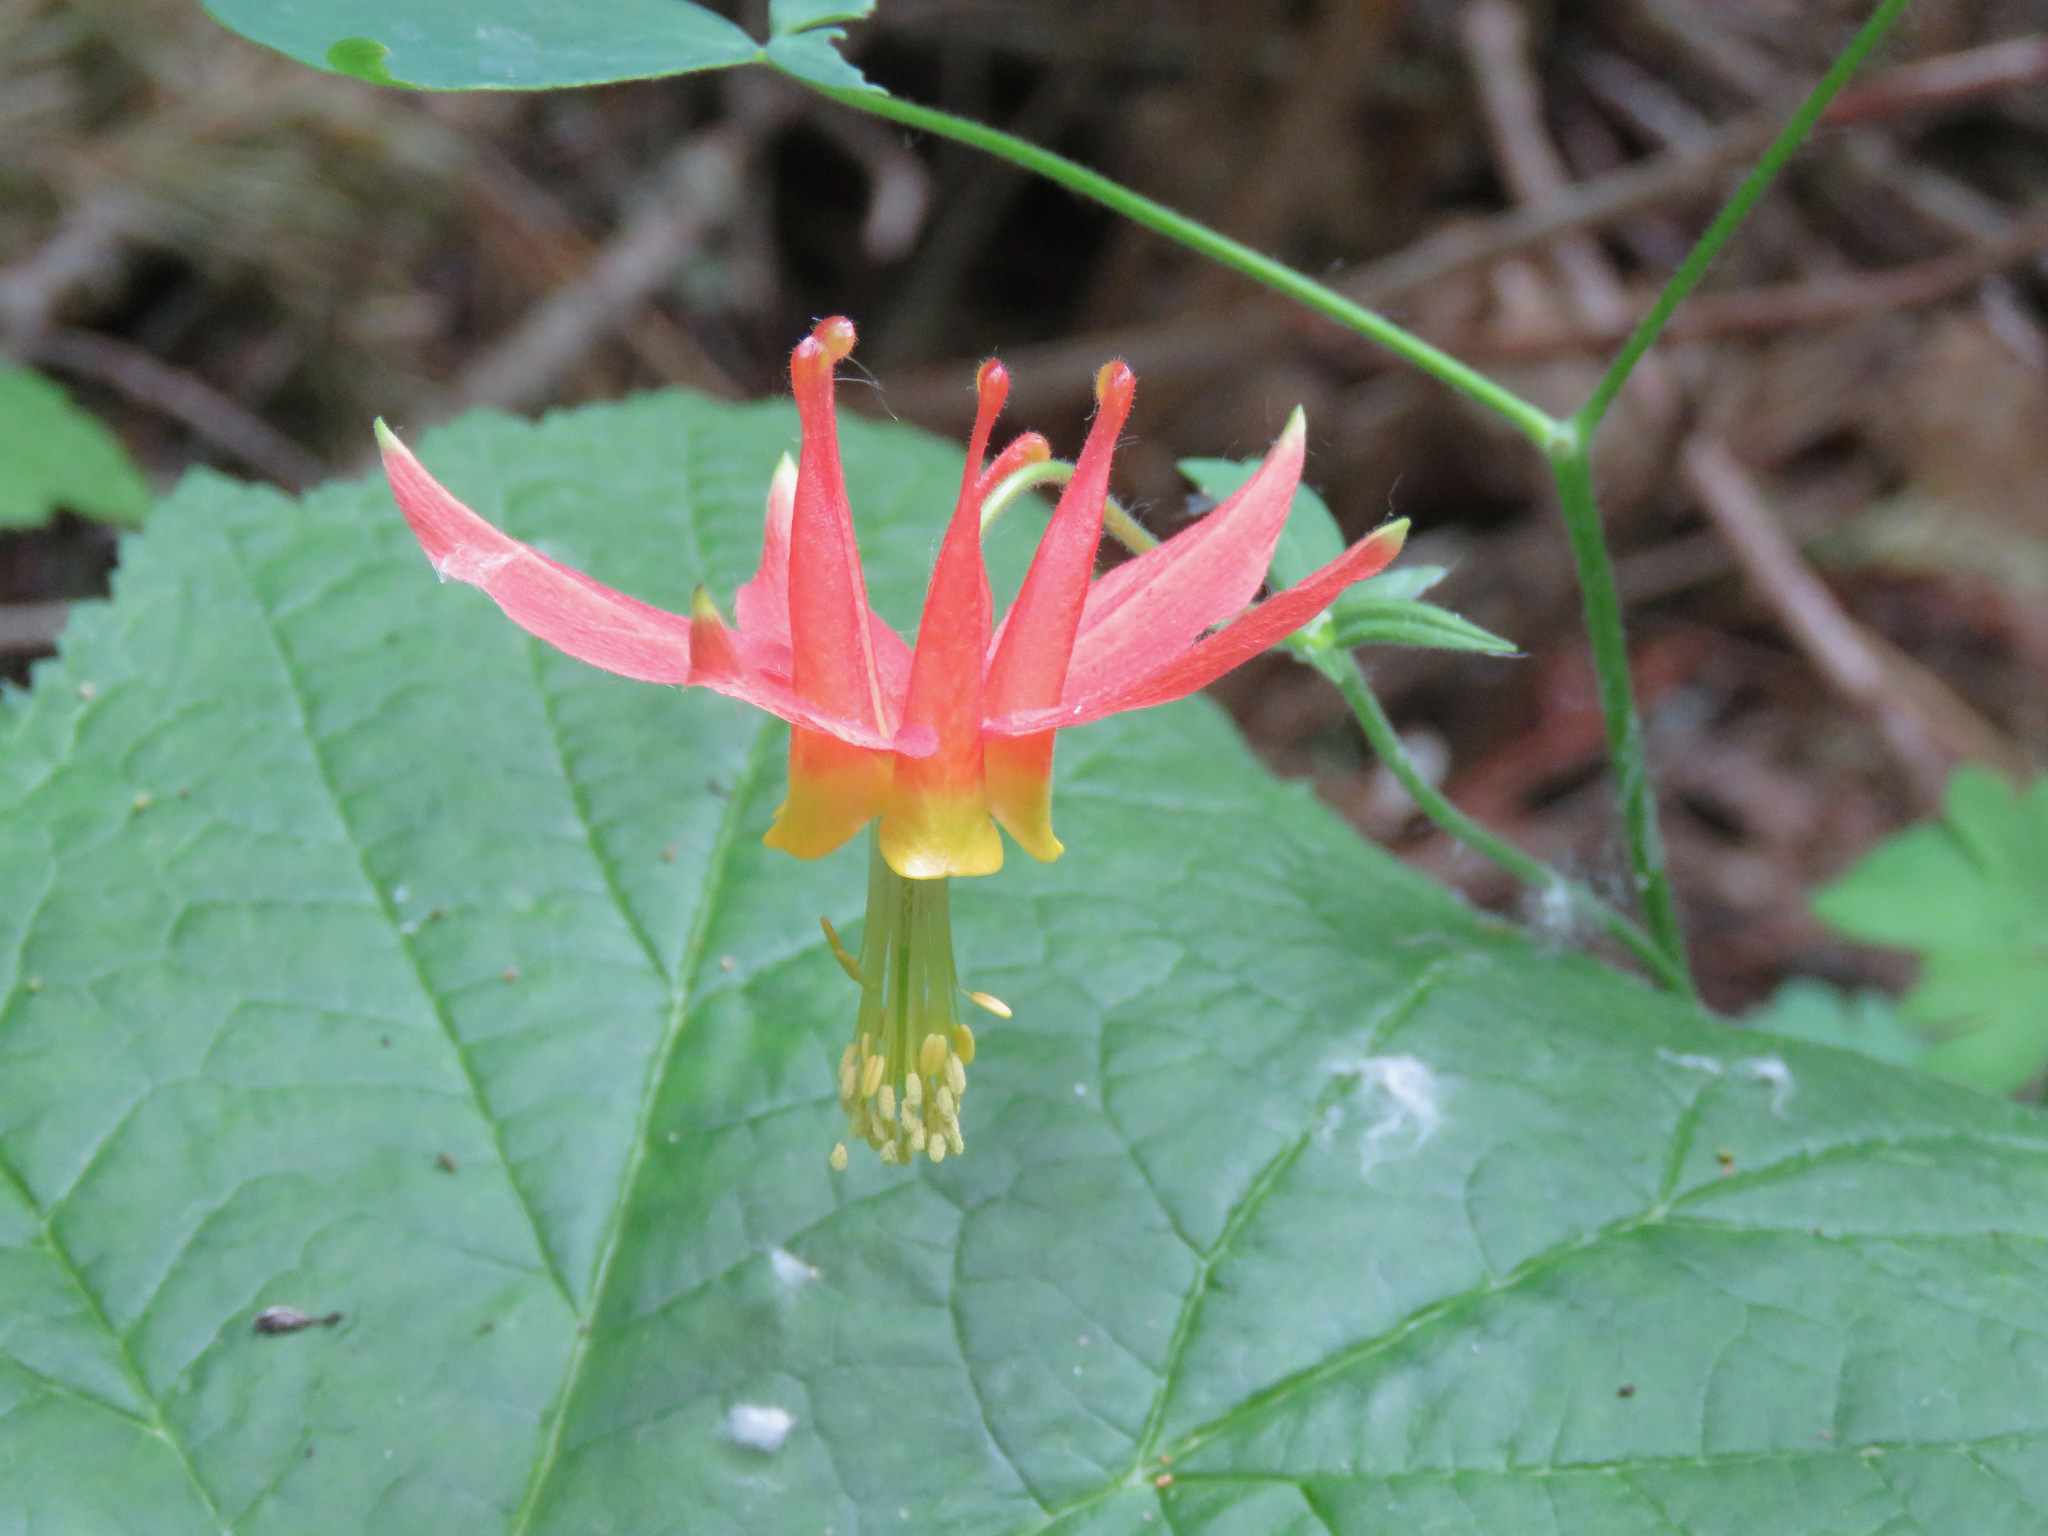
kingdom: Plantae
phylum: Tracheophyta
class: Magnoliopsida
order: Ranunculales
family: Ranunculaceae
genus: Aquilegia
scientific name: Aquilegia formosa
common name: Sitka columbine
